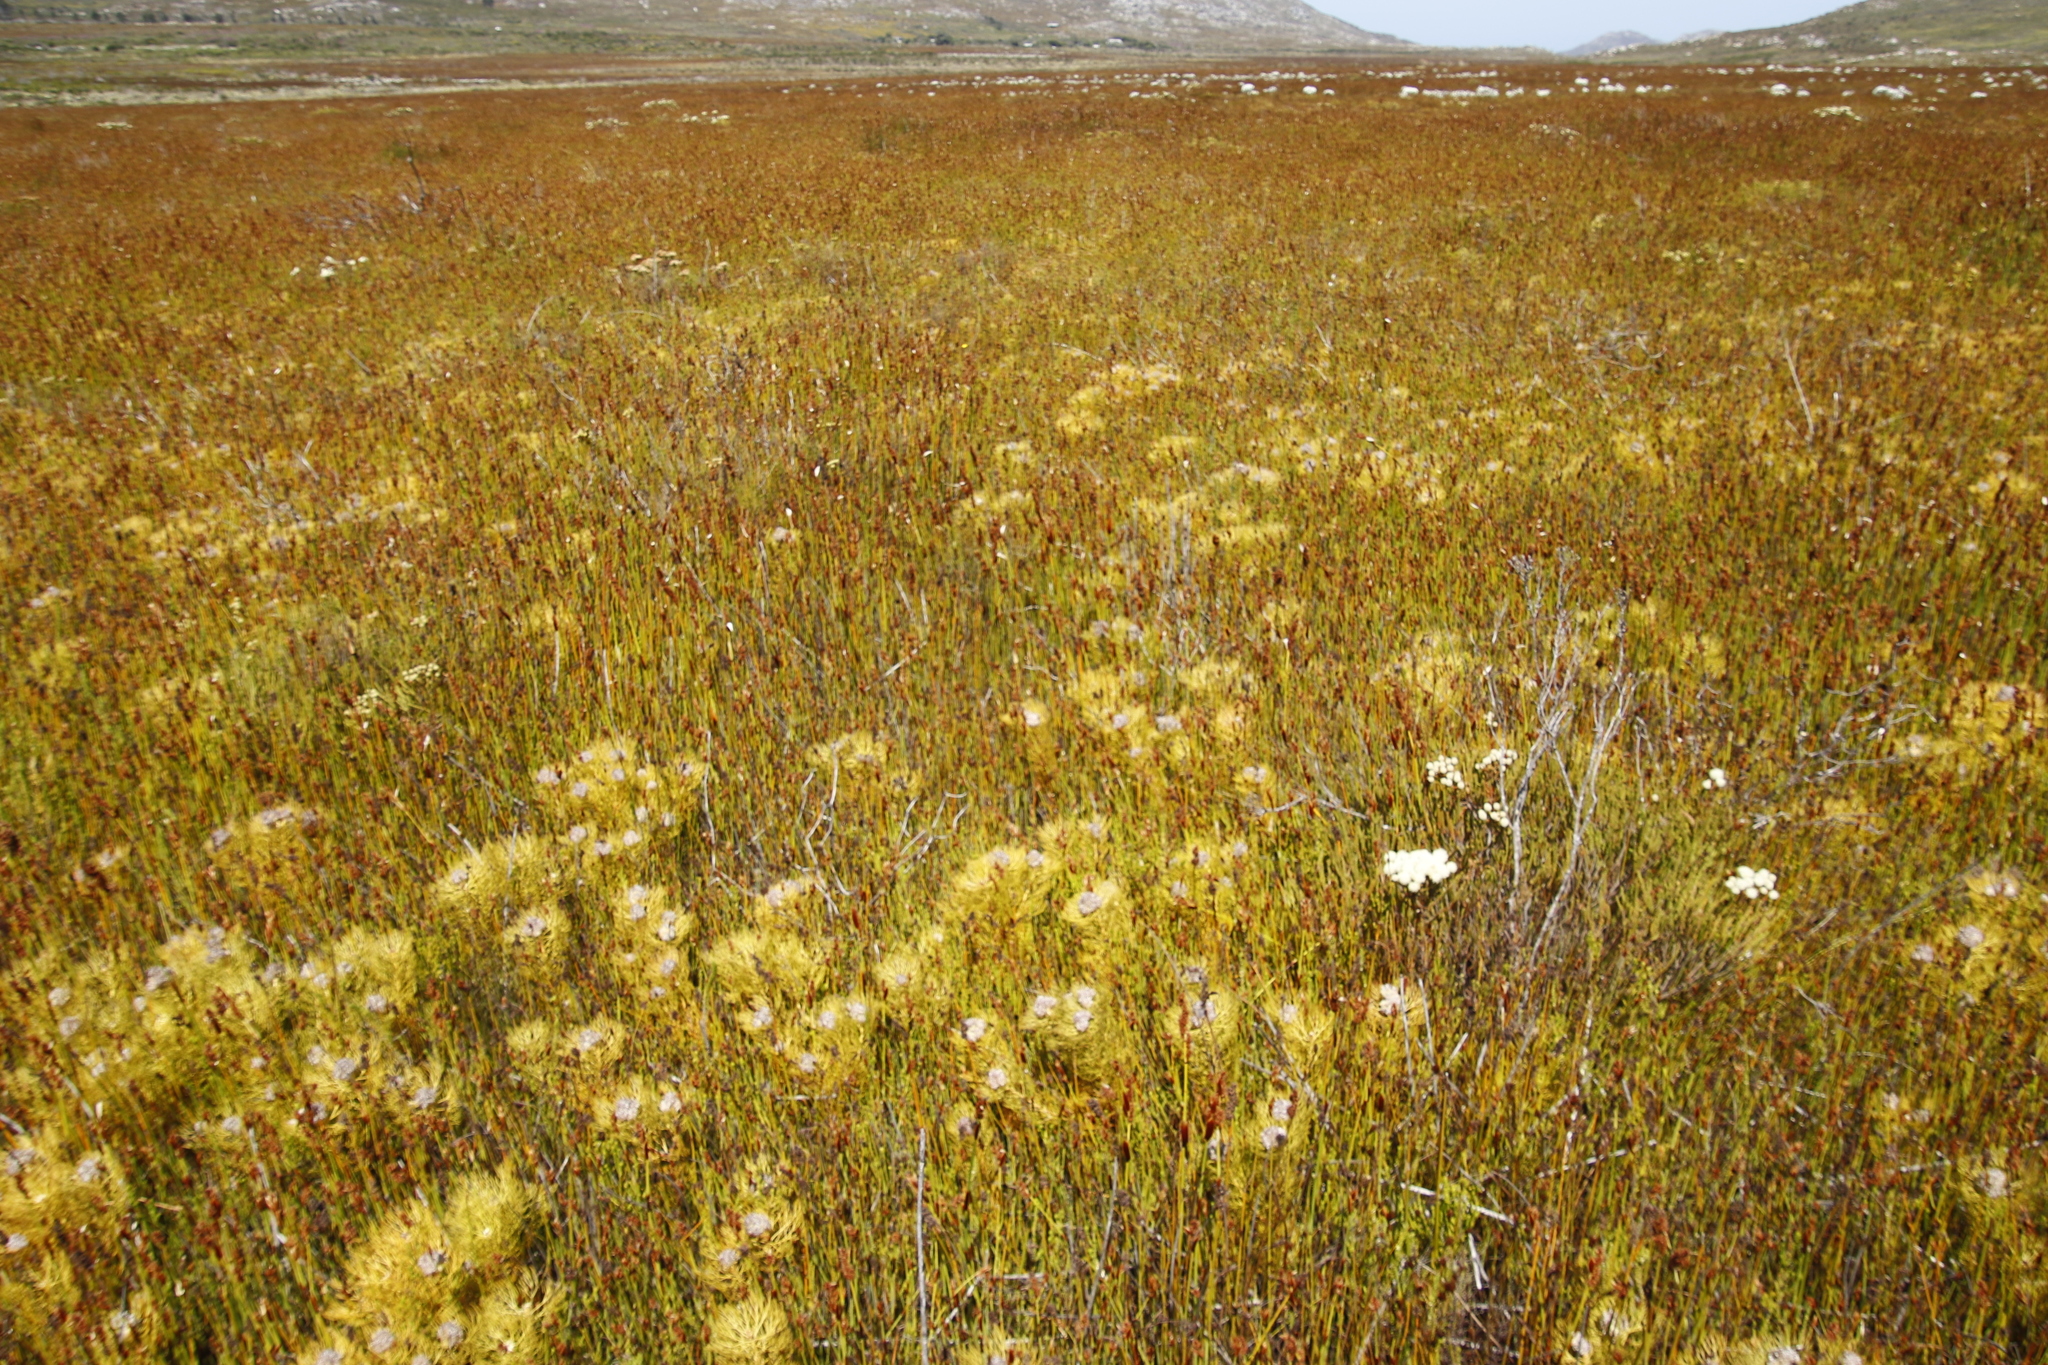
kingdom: Plantae
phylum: Tracheophyta
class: Magnoliopsida
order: Proteales
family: Proteaceae
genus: Serruria
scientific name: Serruria glomerata
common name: Cluster spiderhead
